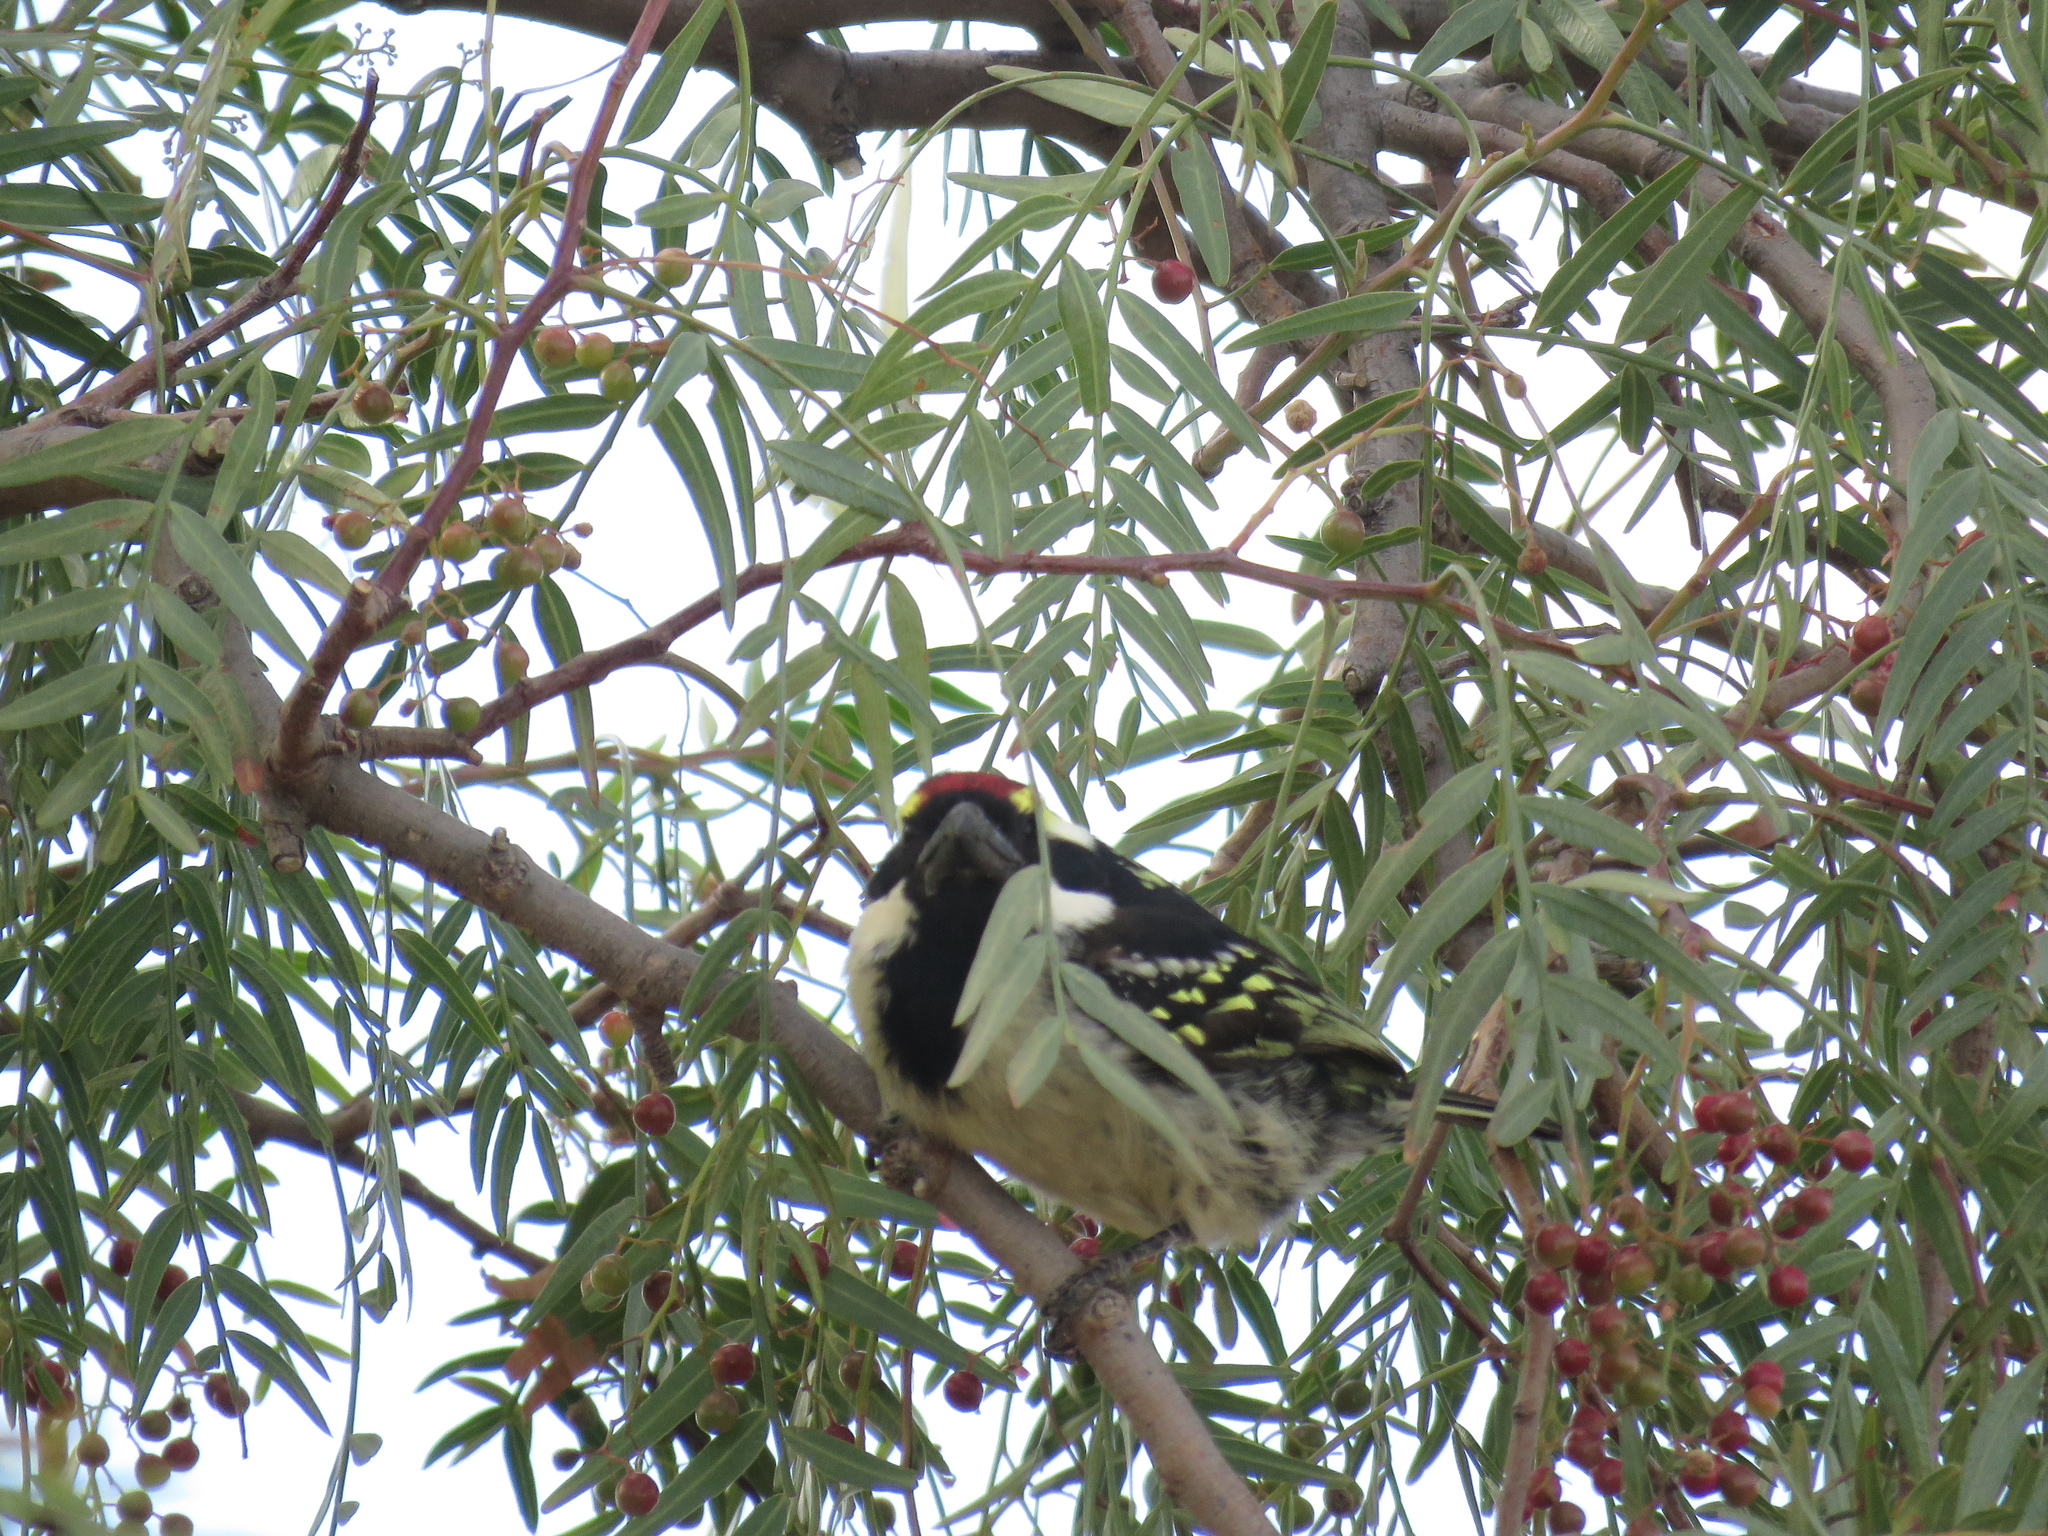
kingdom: Animalia
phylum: Chordata
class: Aves
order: Piciformes
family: Lybiidae
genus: Tricholaema
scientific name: Tricholaema leucomelas
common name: Acacia pied barbet
